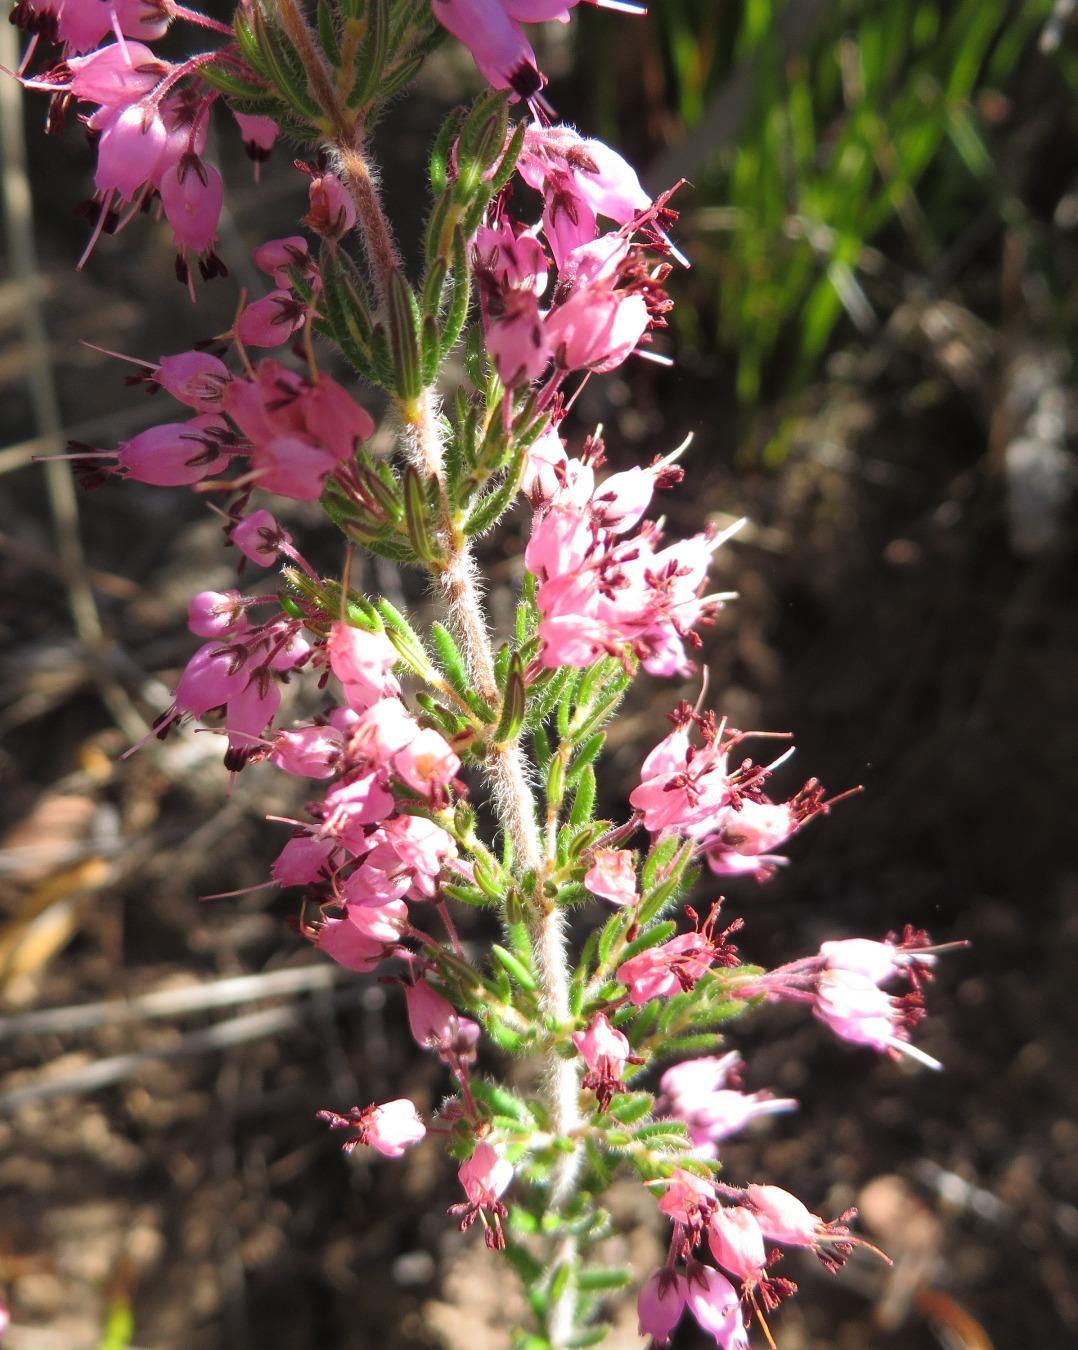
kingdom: Plantae
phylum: Tracheophyta
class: Magnoliopsida
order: Ericales
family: Ericaceae
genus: Erica
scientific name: Erica nudiflora
